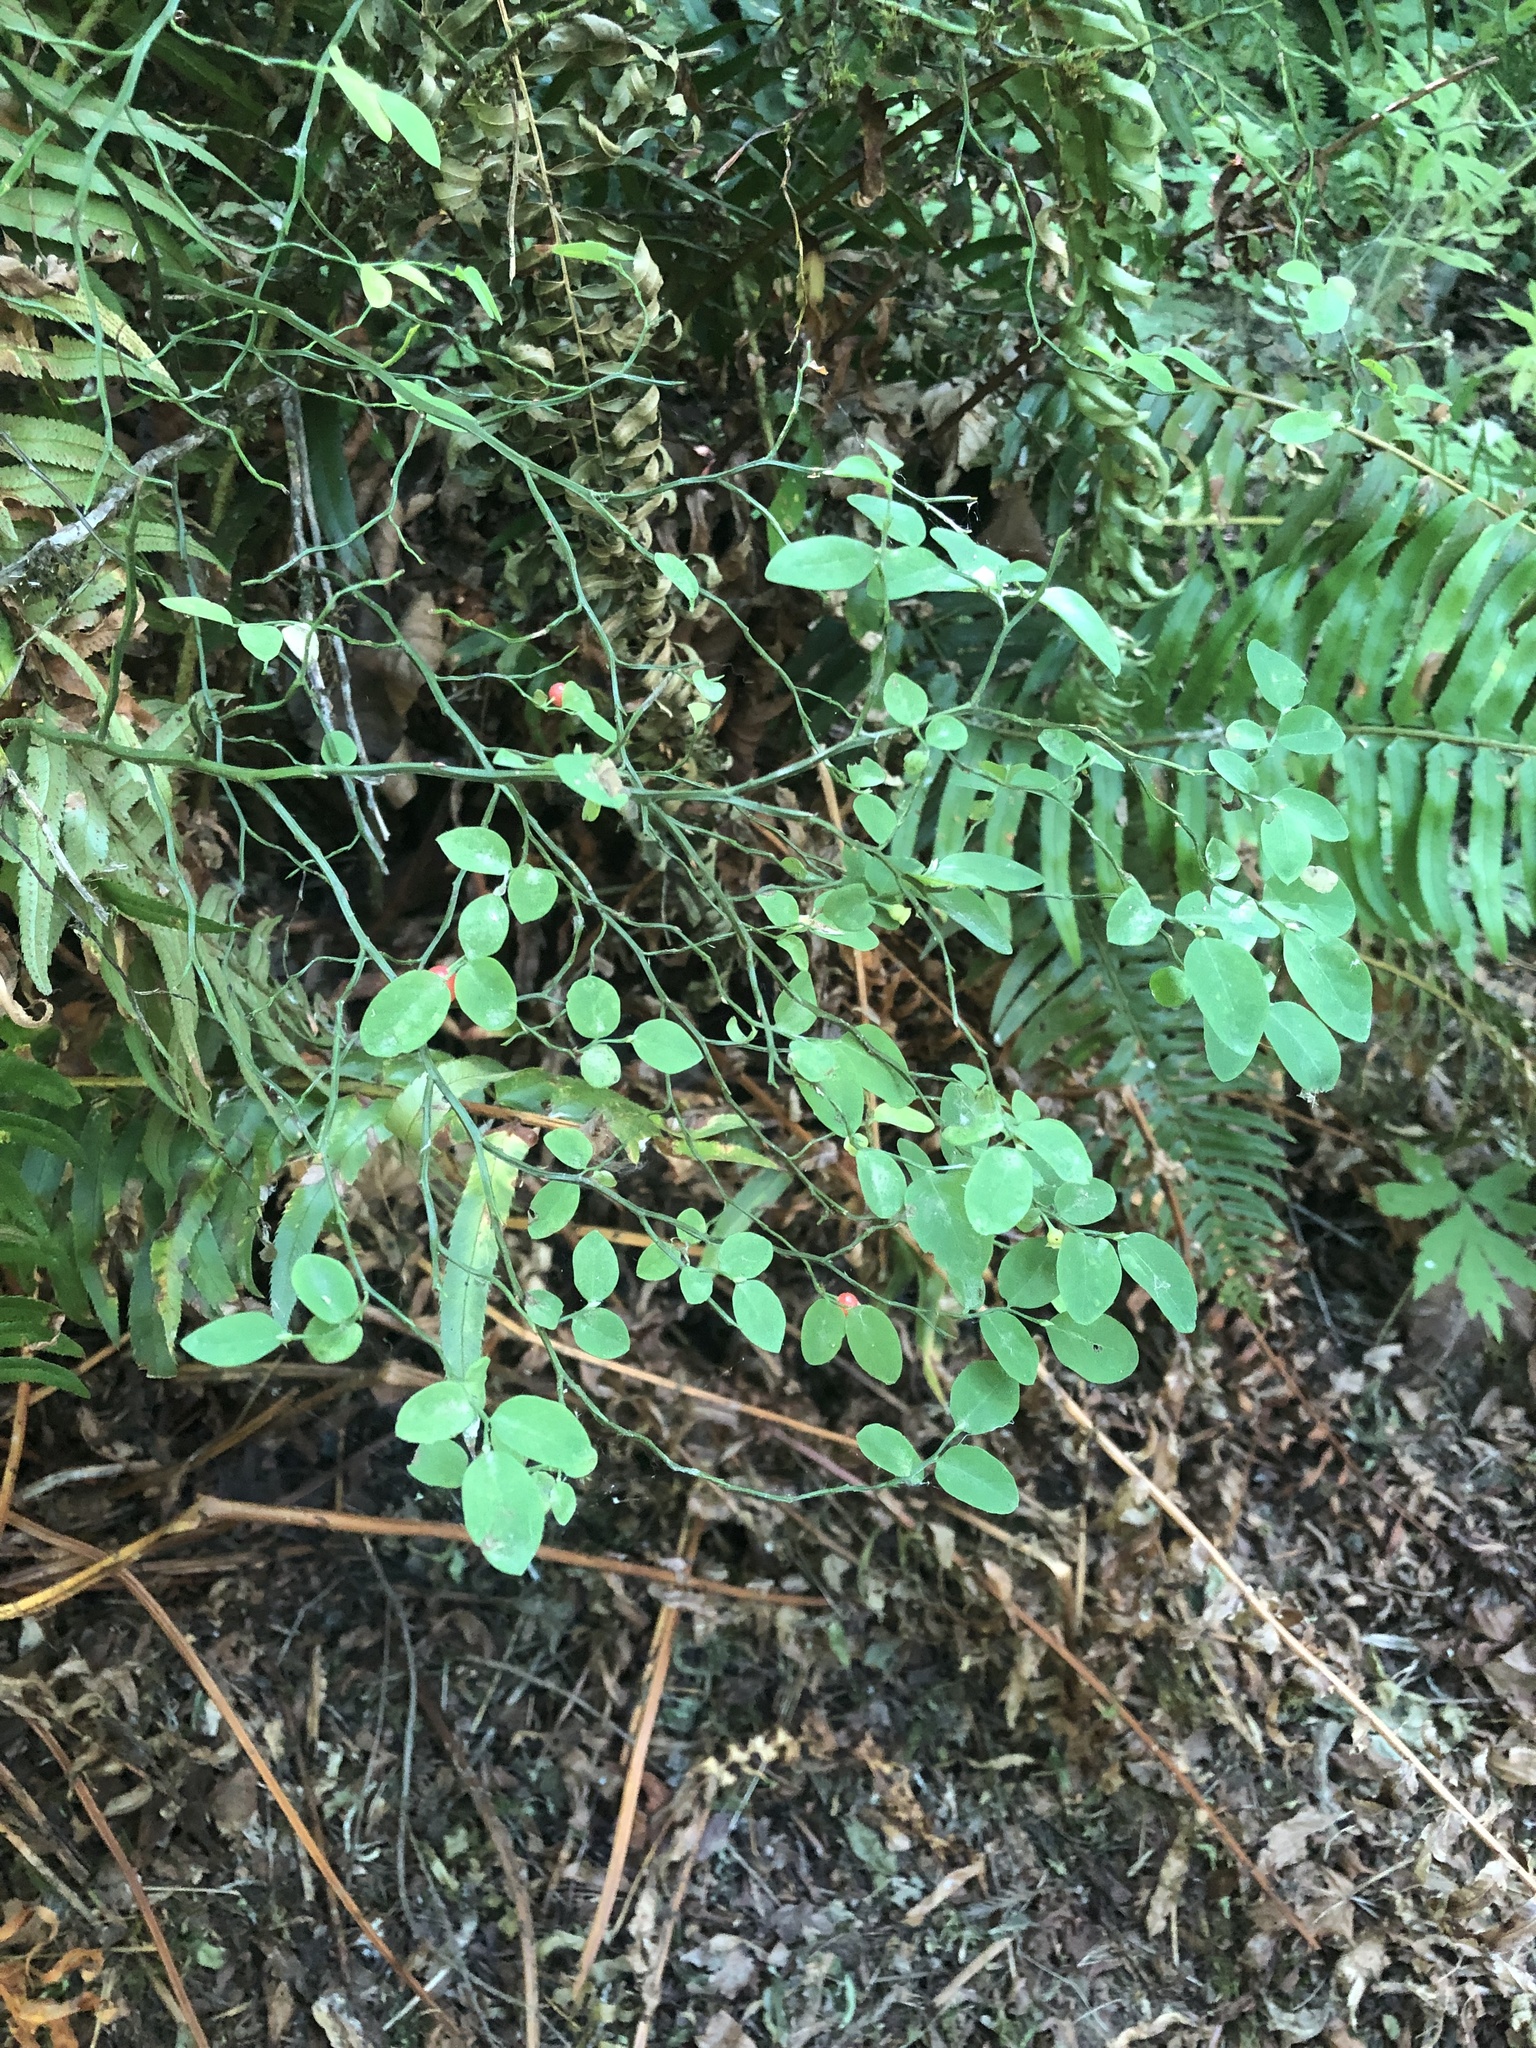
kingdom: Plantae
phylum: Tracheophyta
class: Magnoliopsida
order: Ericales
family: Ericaceae
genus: Vaccinium
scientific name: Vaccinium parvifolium
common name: Red-huckleberry
